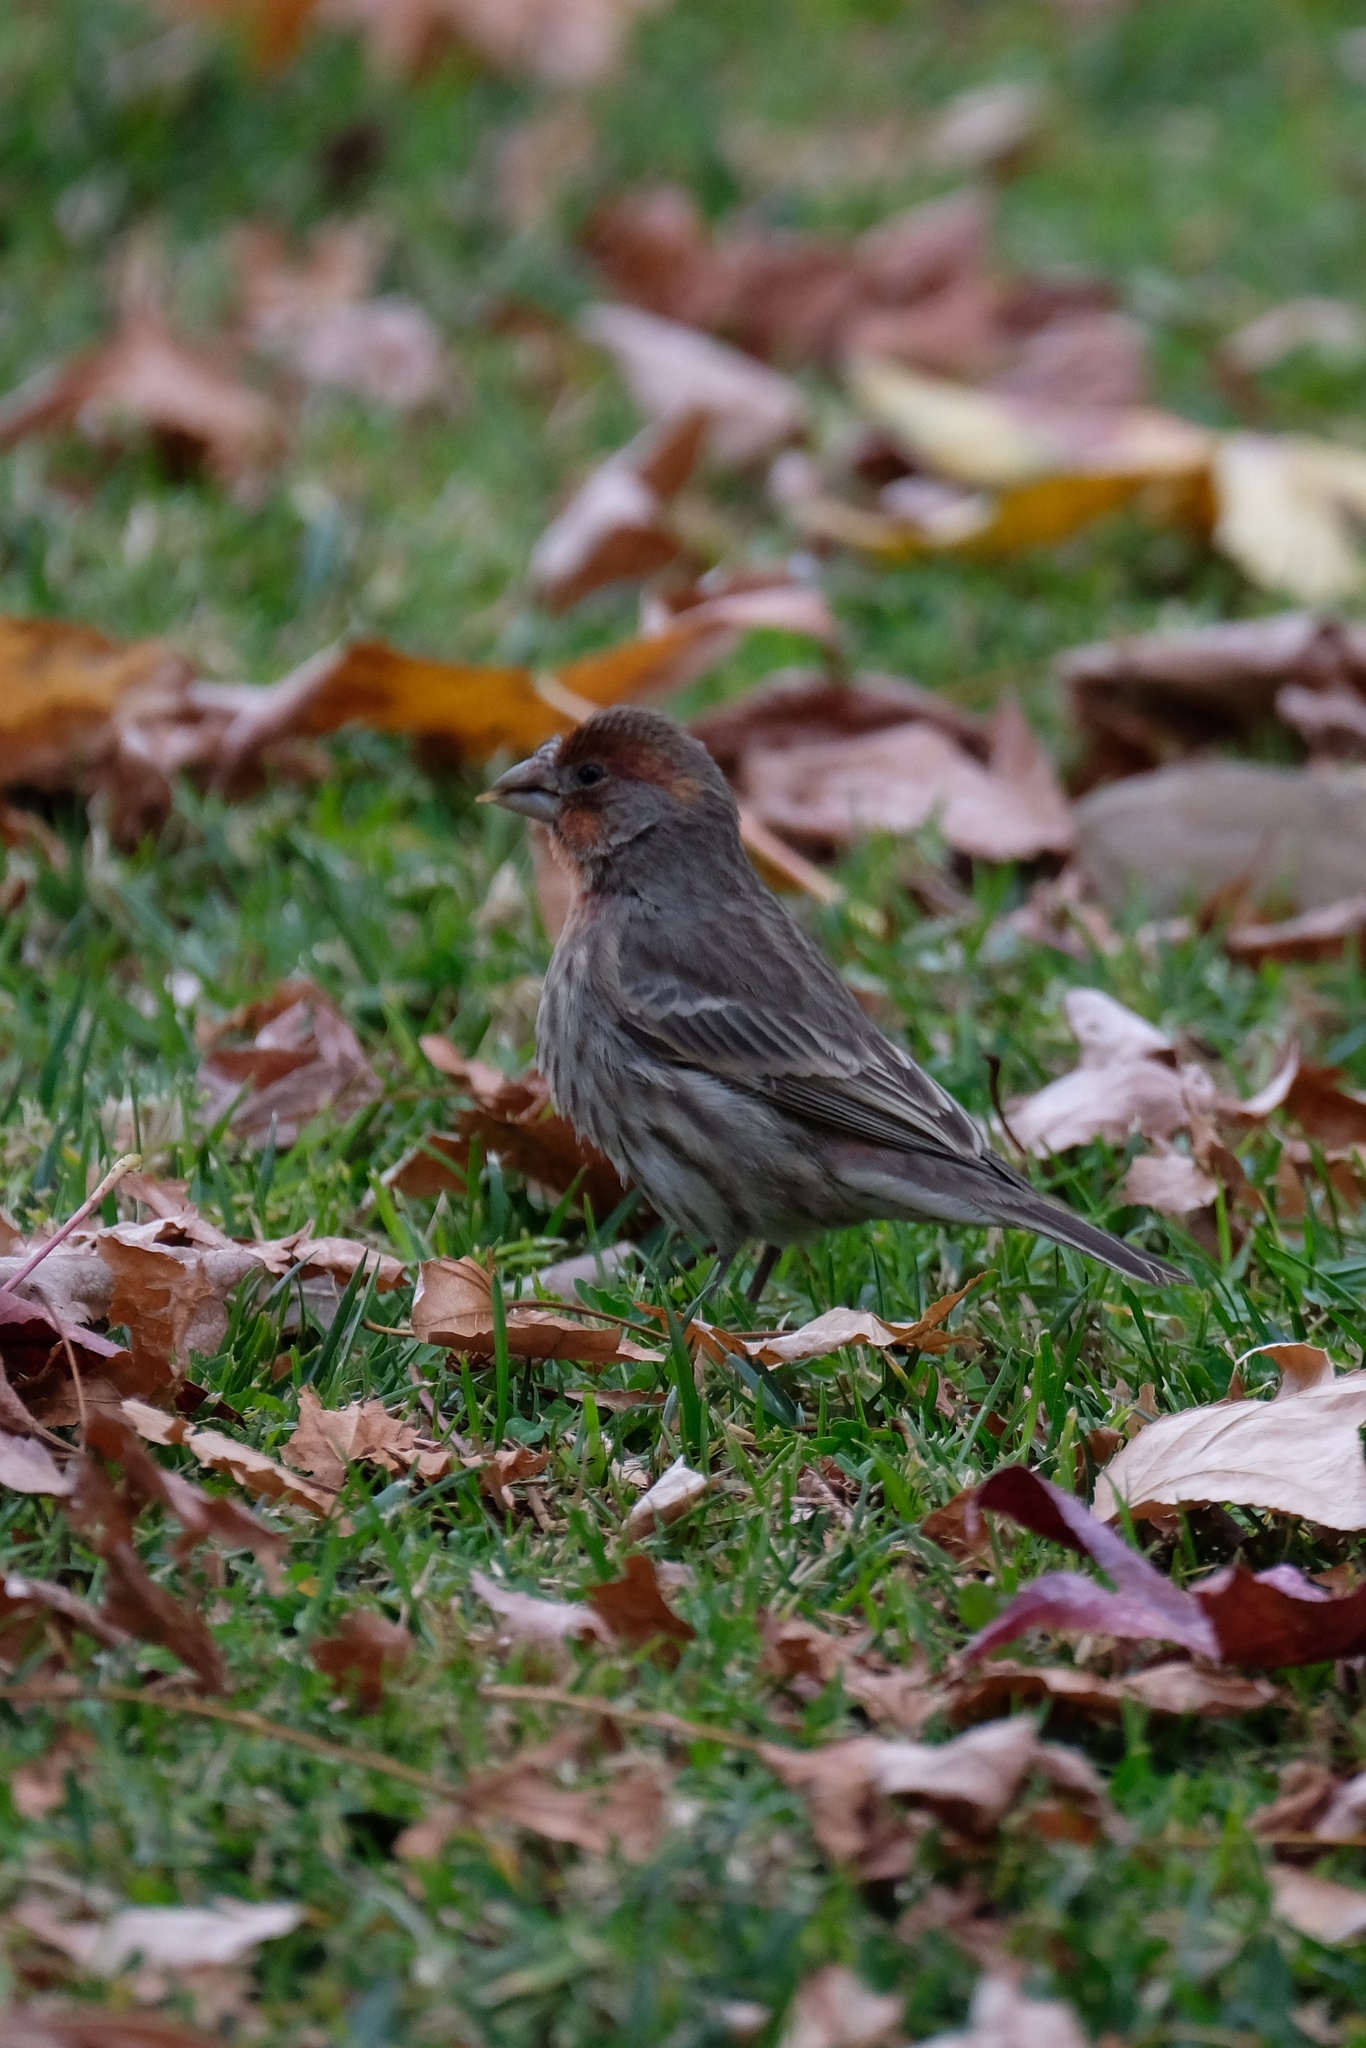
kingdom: Animalia
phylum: Chordata
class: Aves
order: Passeriformes
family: Fringillidae
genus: Haemorhous
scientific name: Haemorhous mexicanus
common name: House finch
